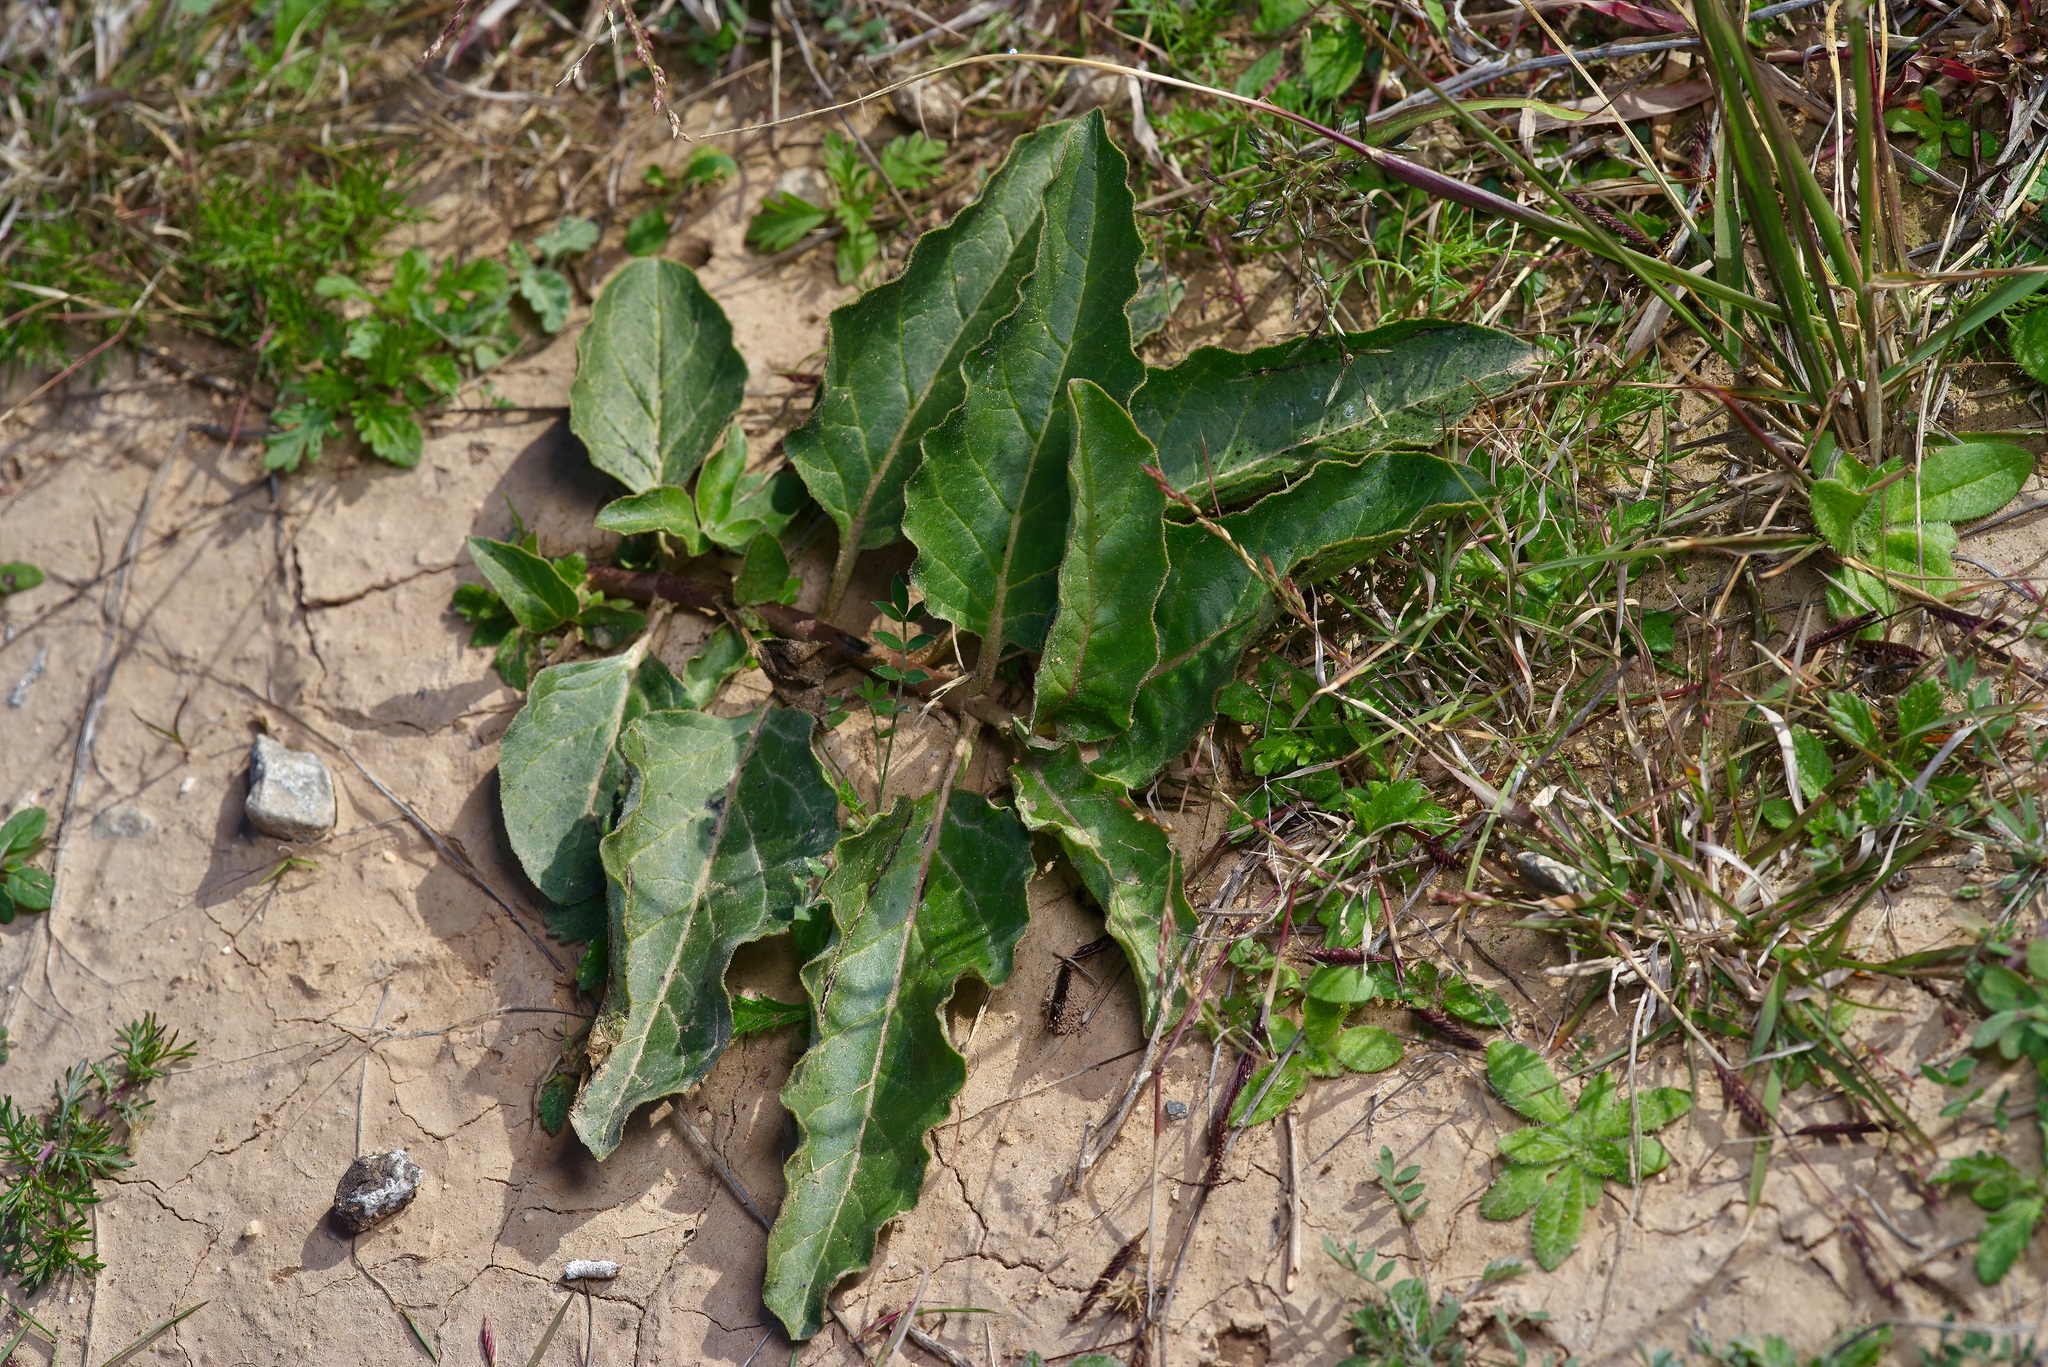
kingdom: Plantae
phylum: Tracheophyta
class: Magnoliopsida
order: Gentianales
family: Apocynaceae
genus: Asclepias
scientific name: Asclepias oenotheroides
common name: Zizotes milkweed
